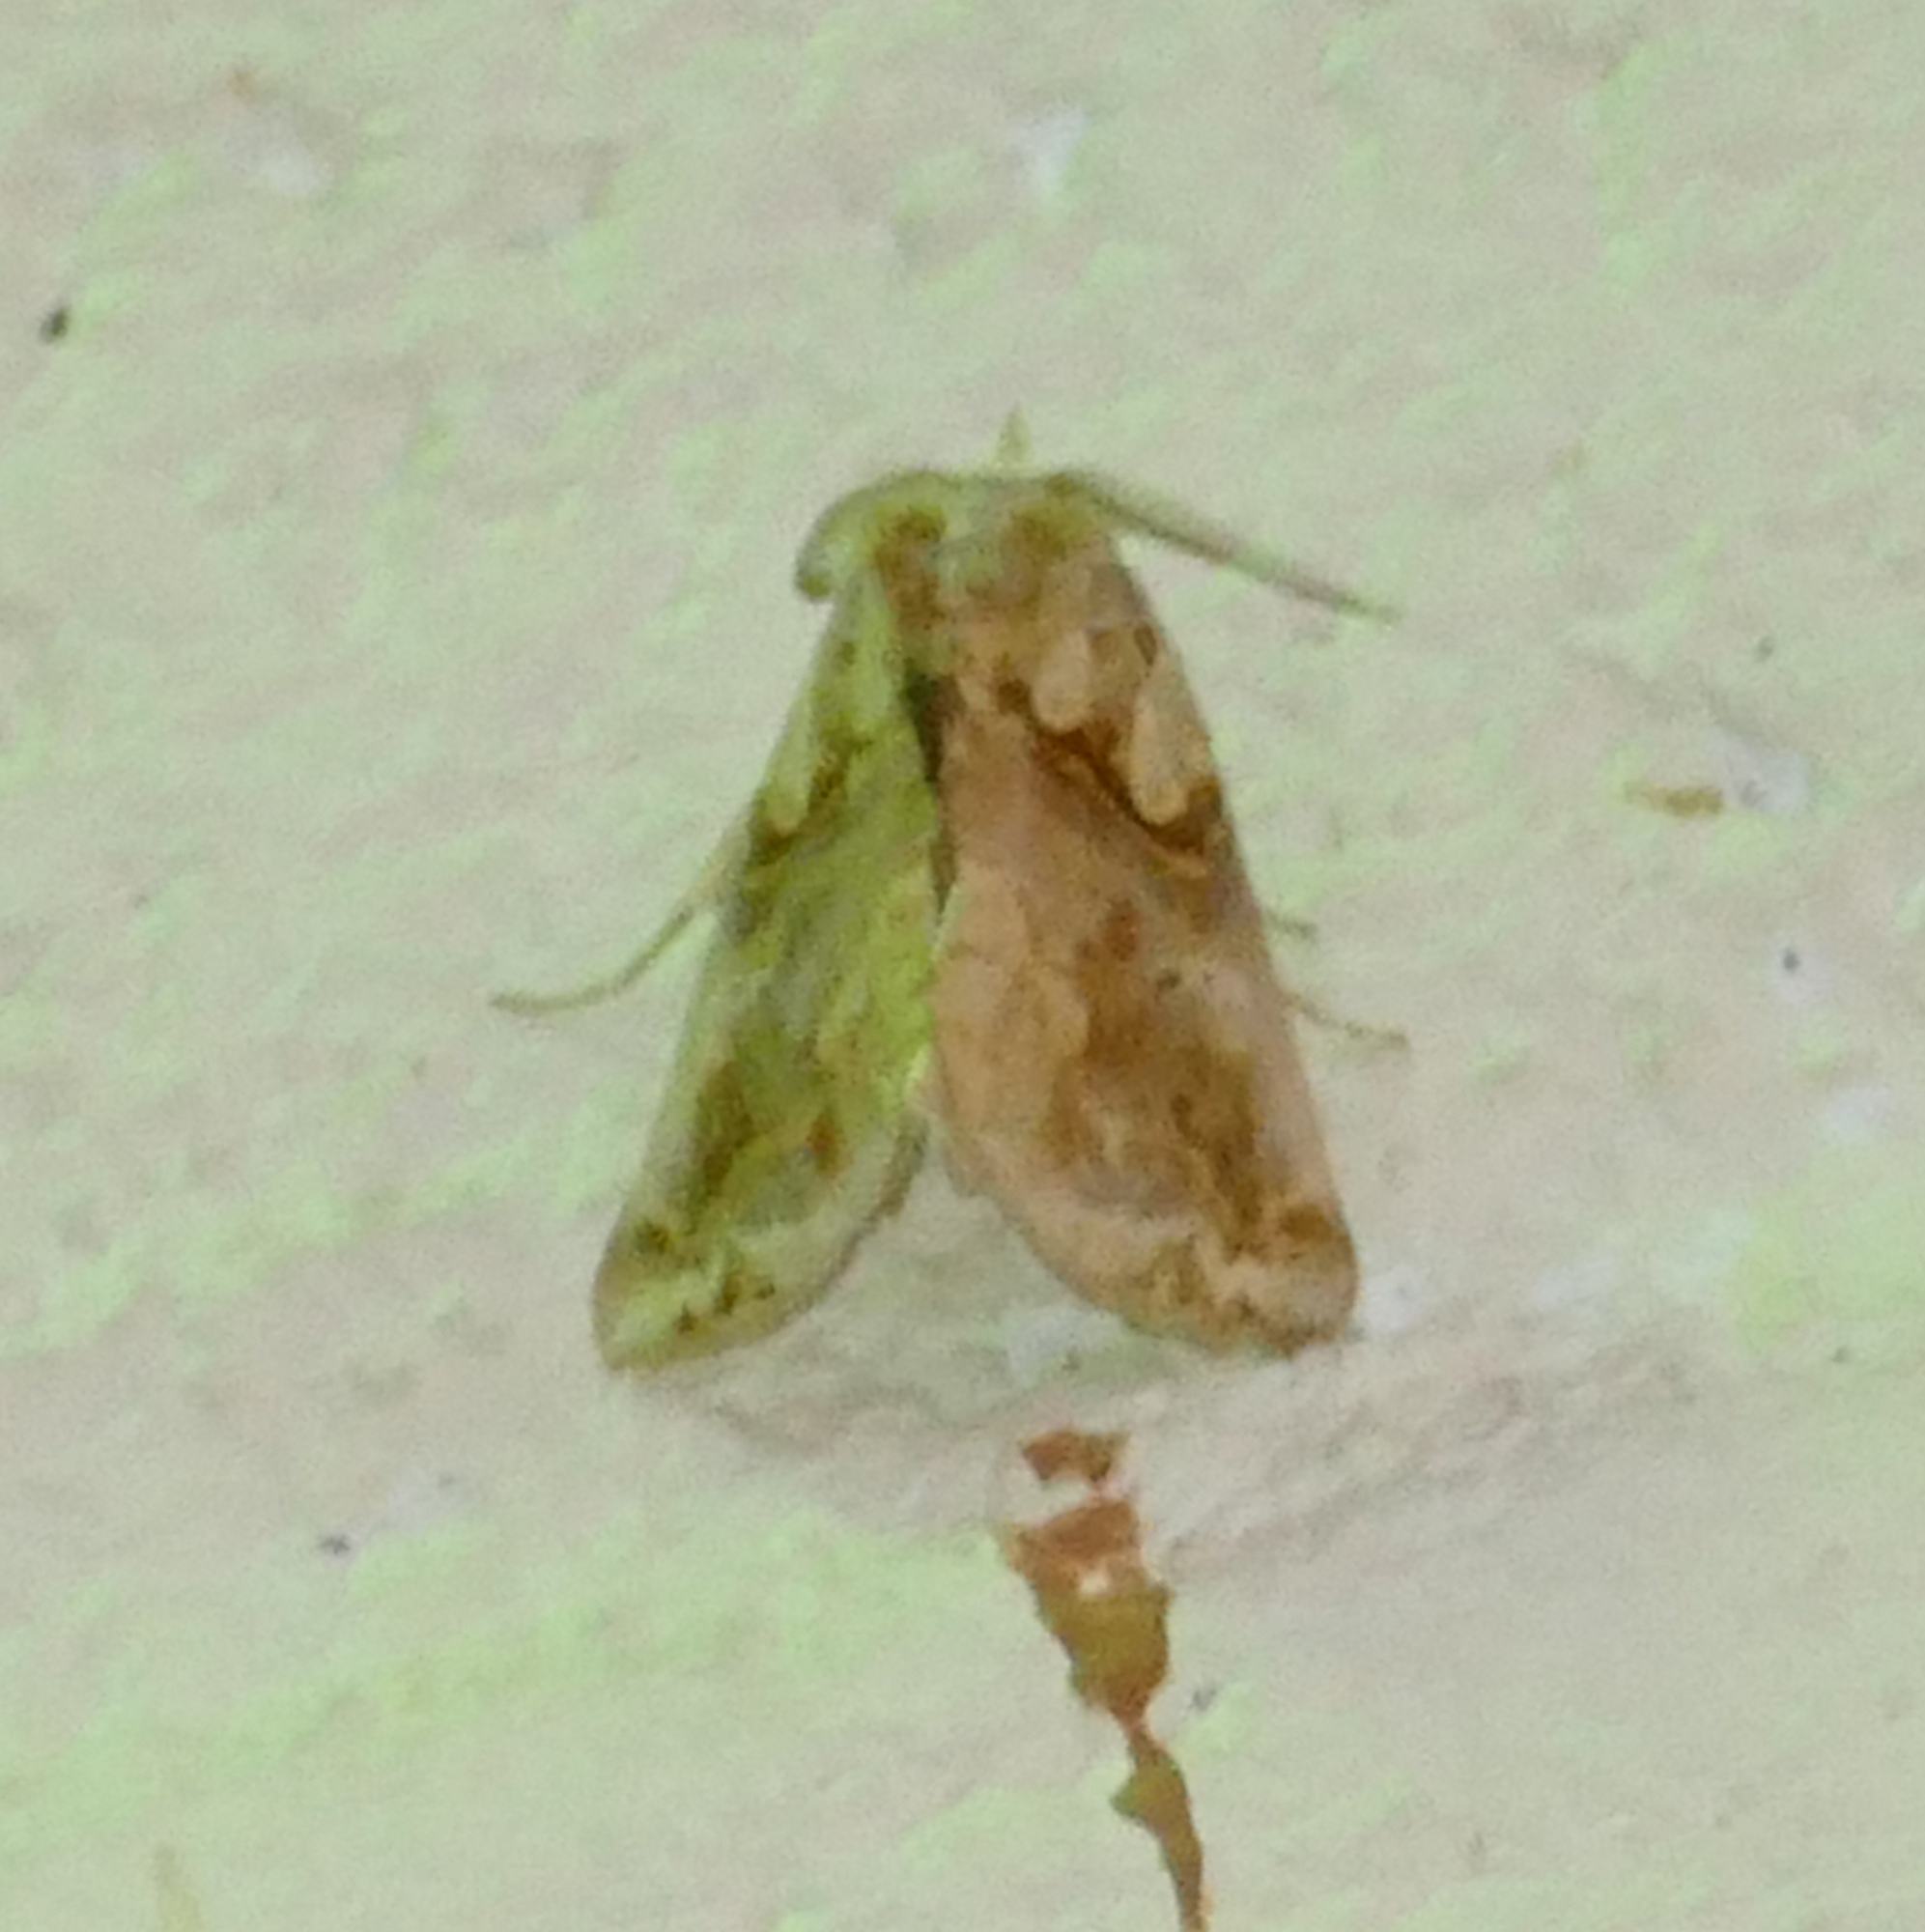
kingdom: Animalia
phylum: Arthropoda
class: Insecta
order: Lepidoptera
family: Erebidae
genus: Plusiodonta
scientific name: Plusiodonta compressipalpis
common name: Moonseed moth
